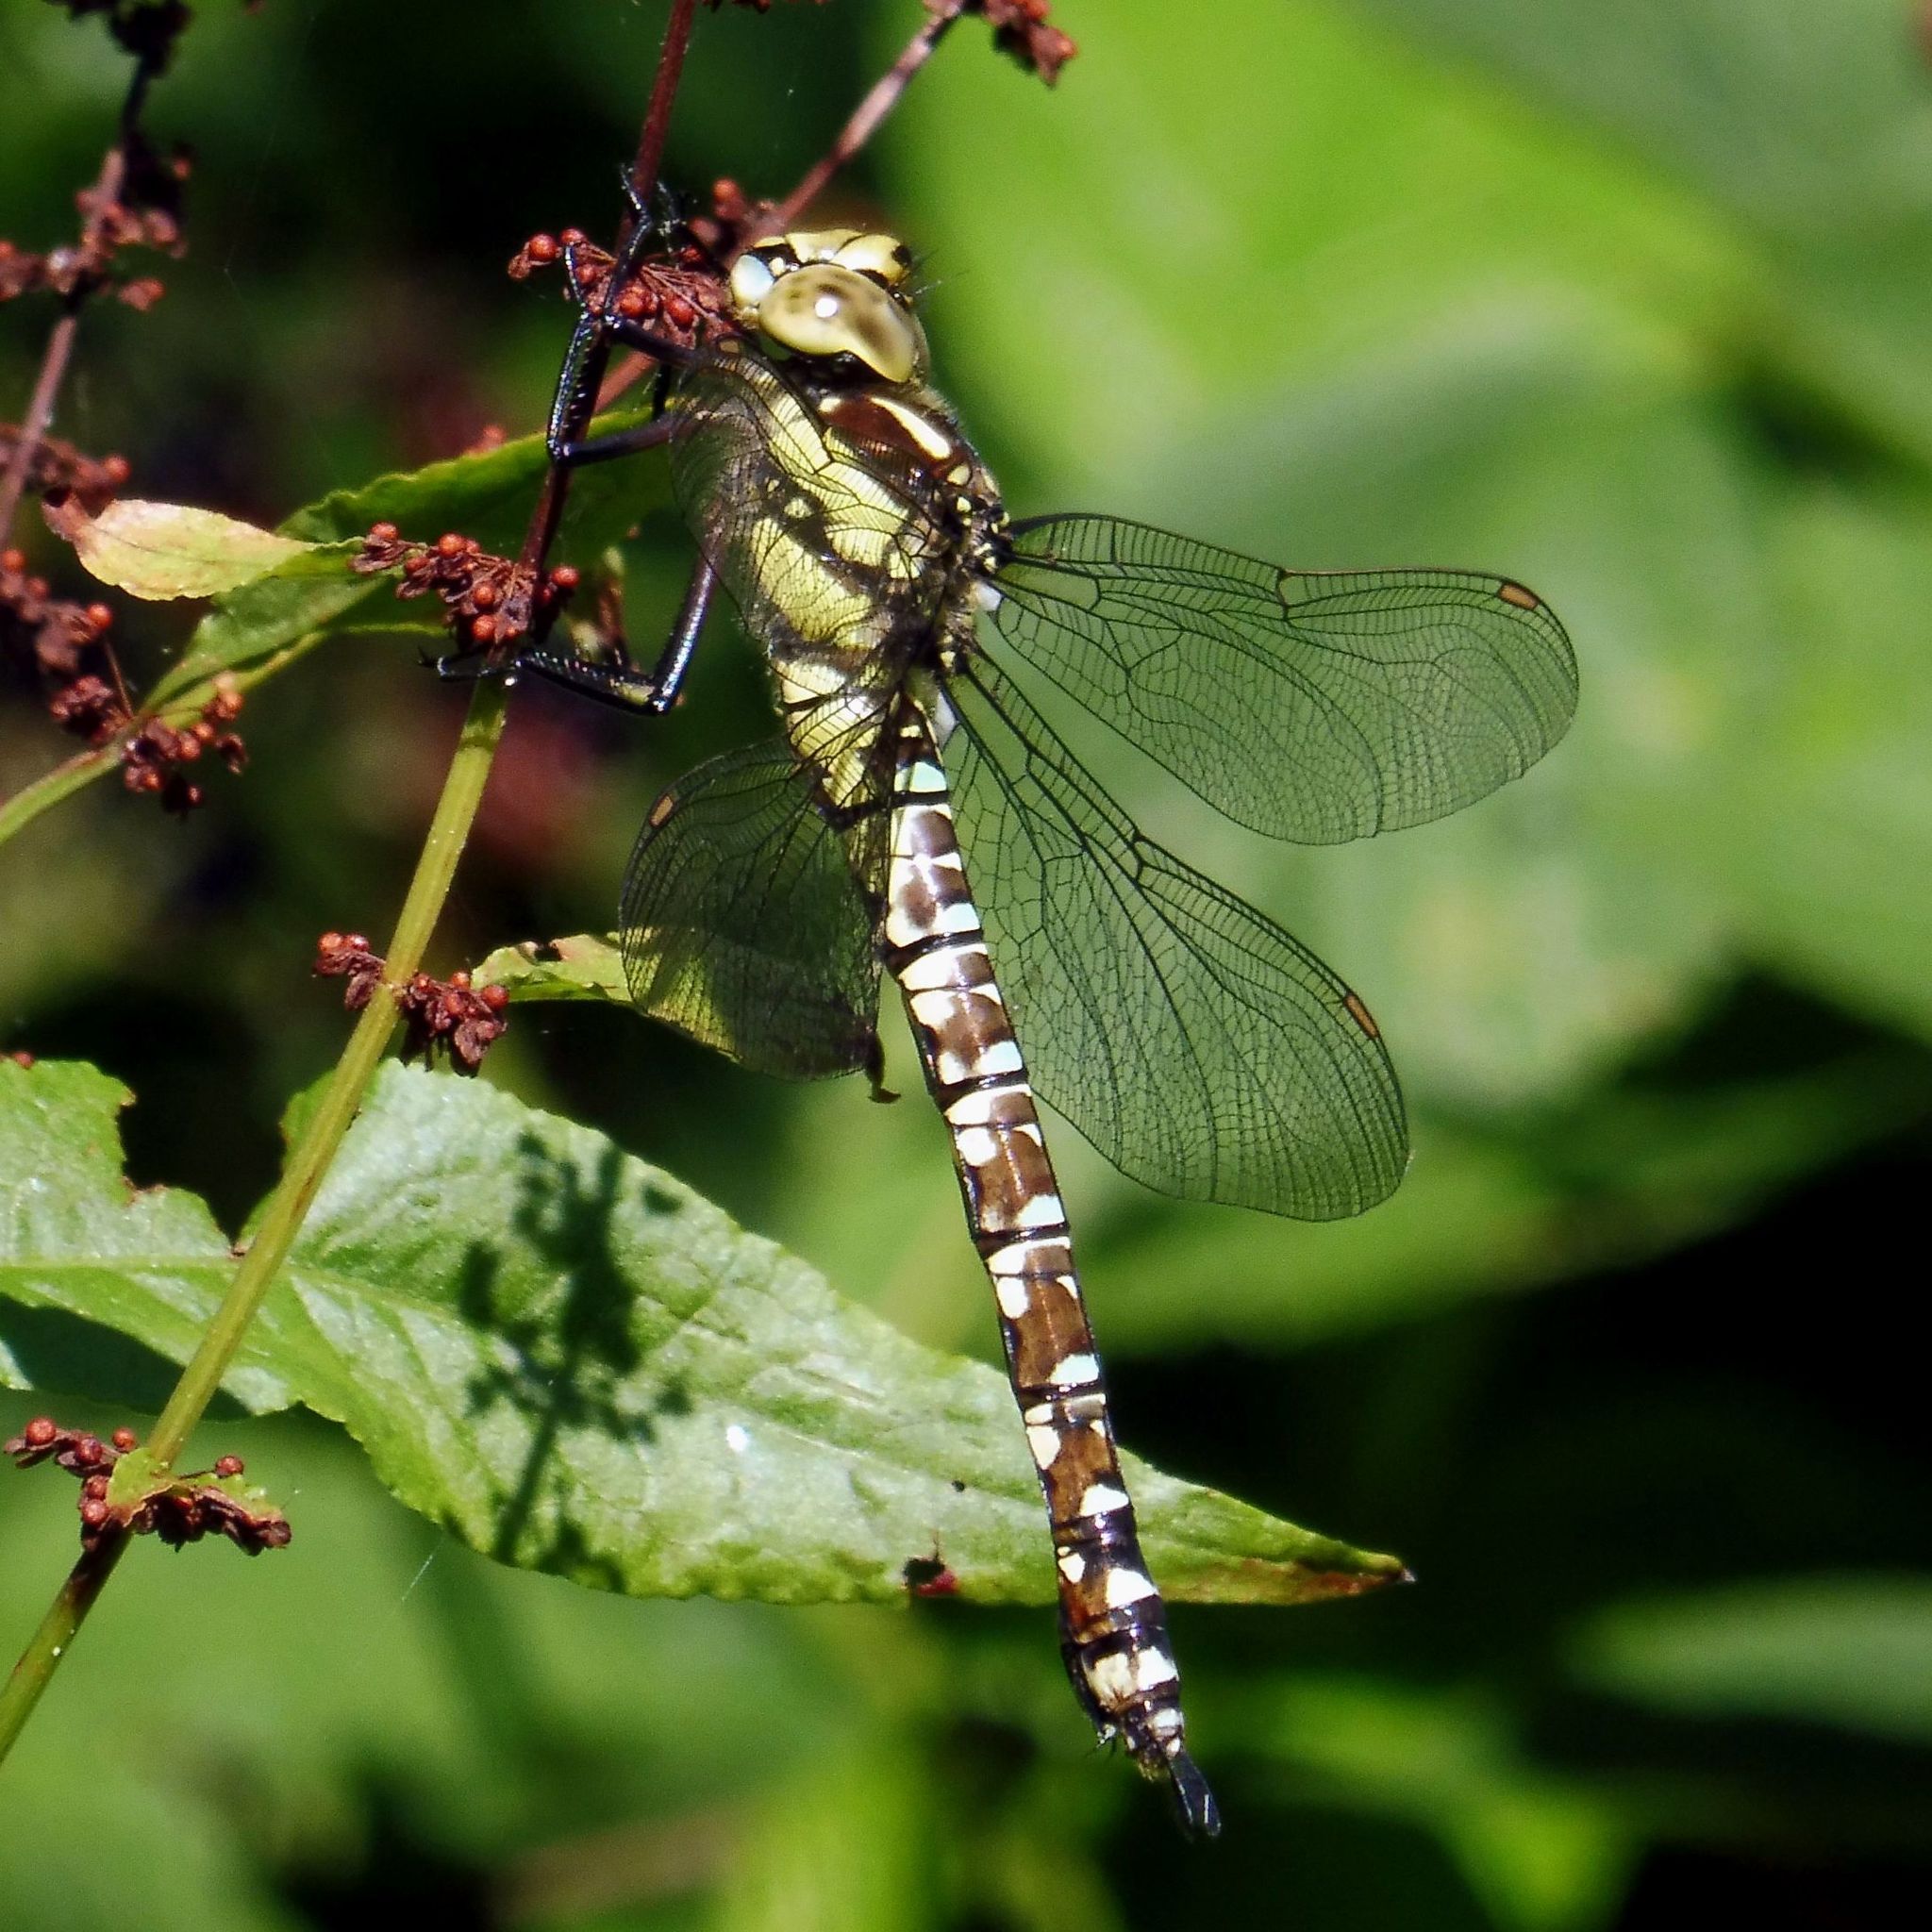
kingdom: Animalia
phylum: Arthropoda
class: Insecta
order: Odonata
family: Aeshnidae
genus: Aeshna
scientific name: Aeshna cyanea
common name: Southern hawker
